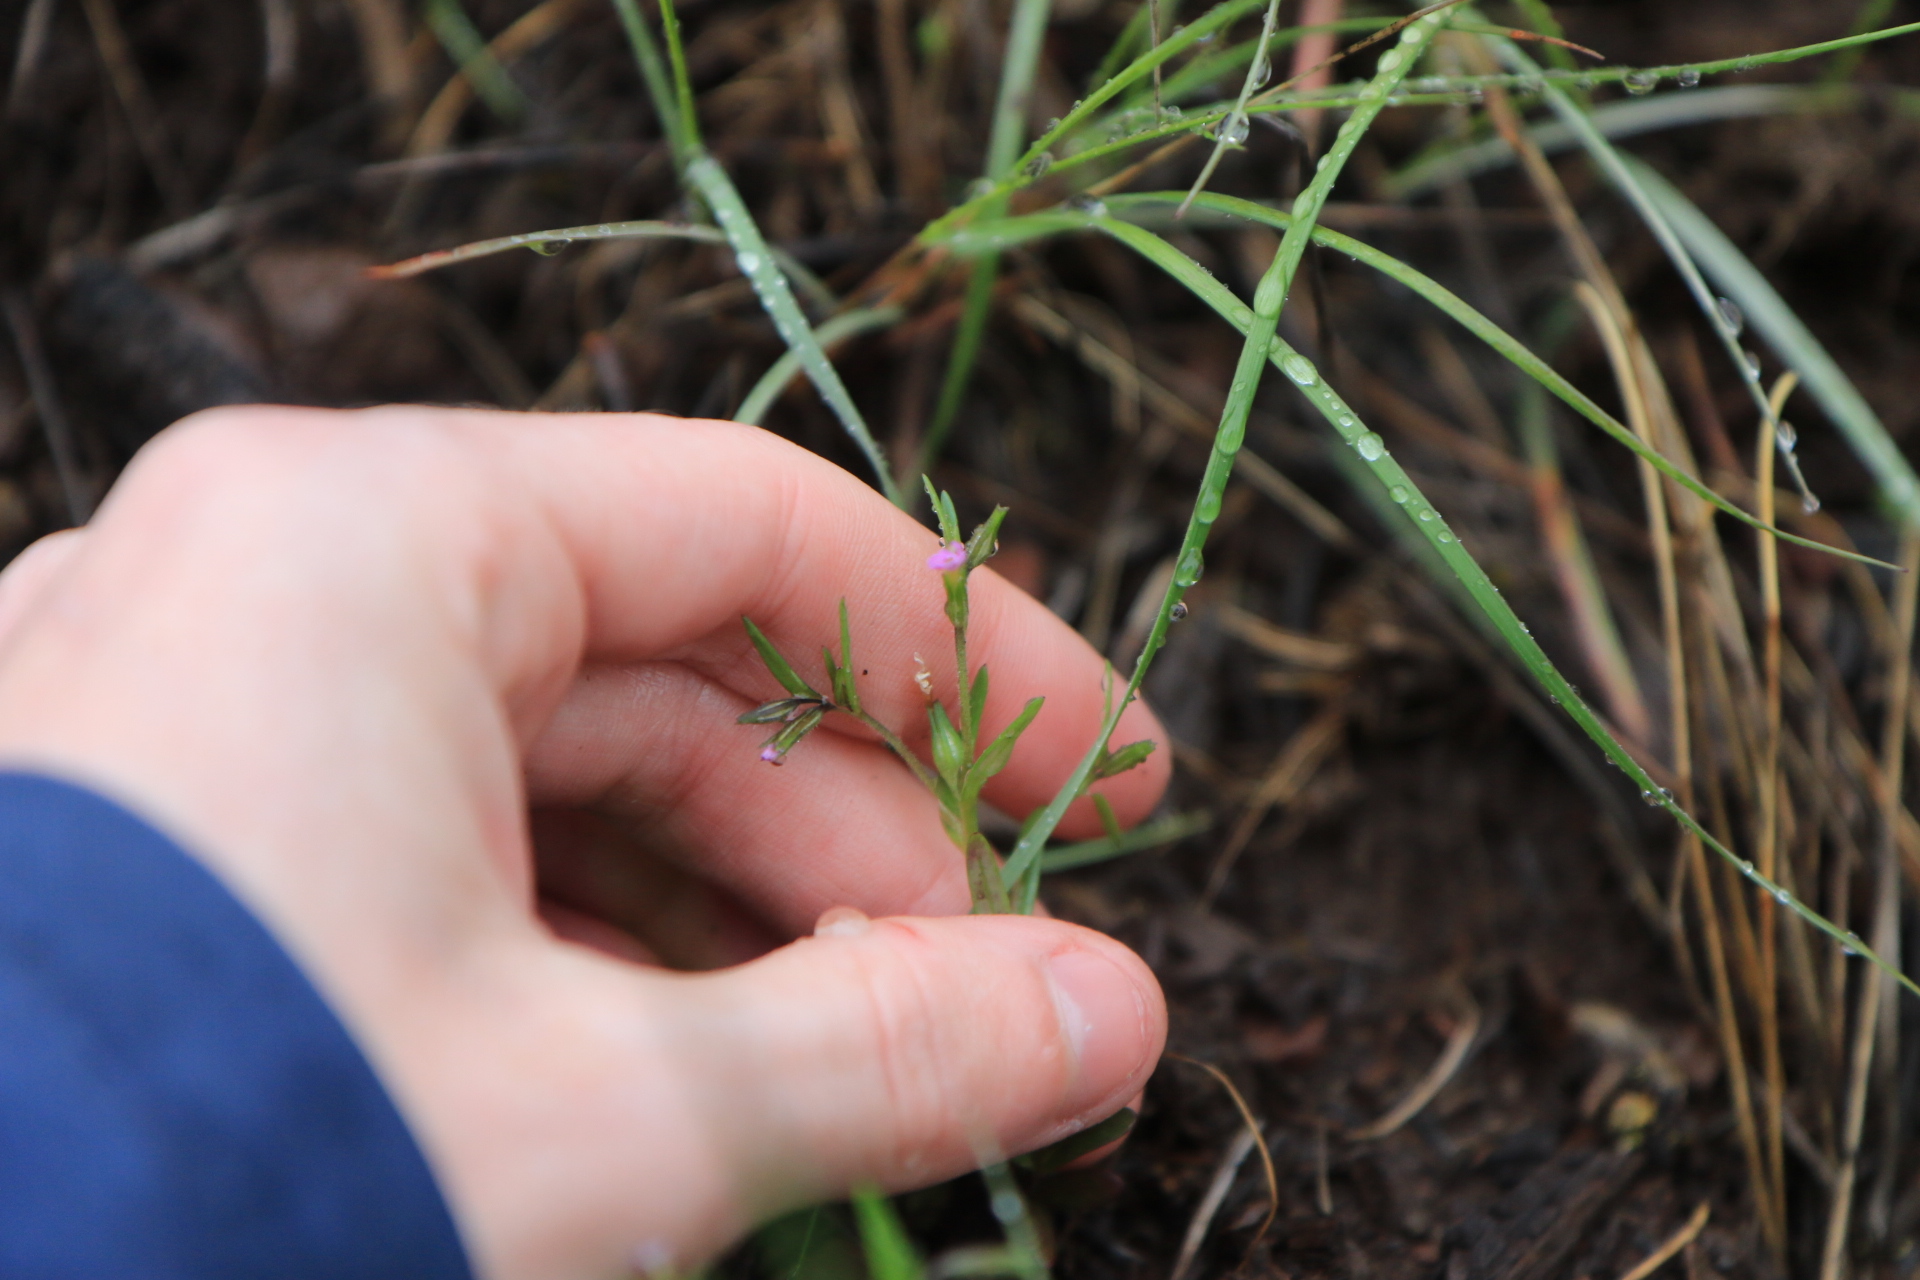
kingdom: Plantae
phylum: Tracheophyta
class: Magnoliopsida
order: Ericales
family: Polemoniaceae
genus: Phlox
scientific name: Phlox gracilis
